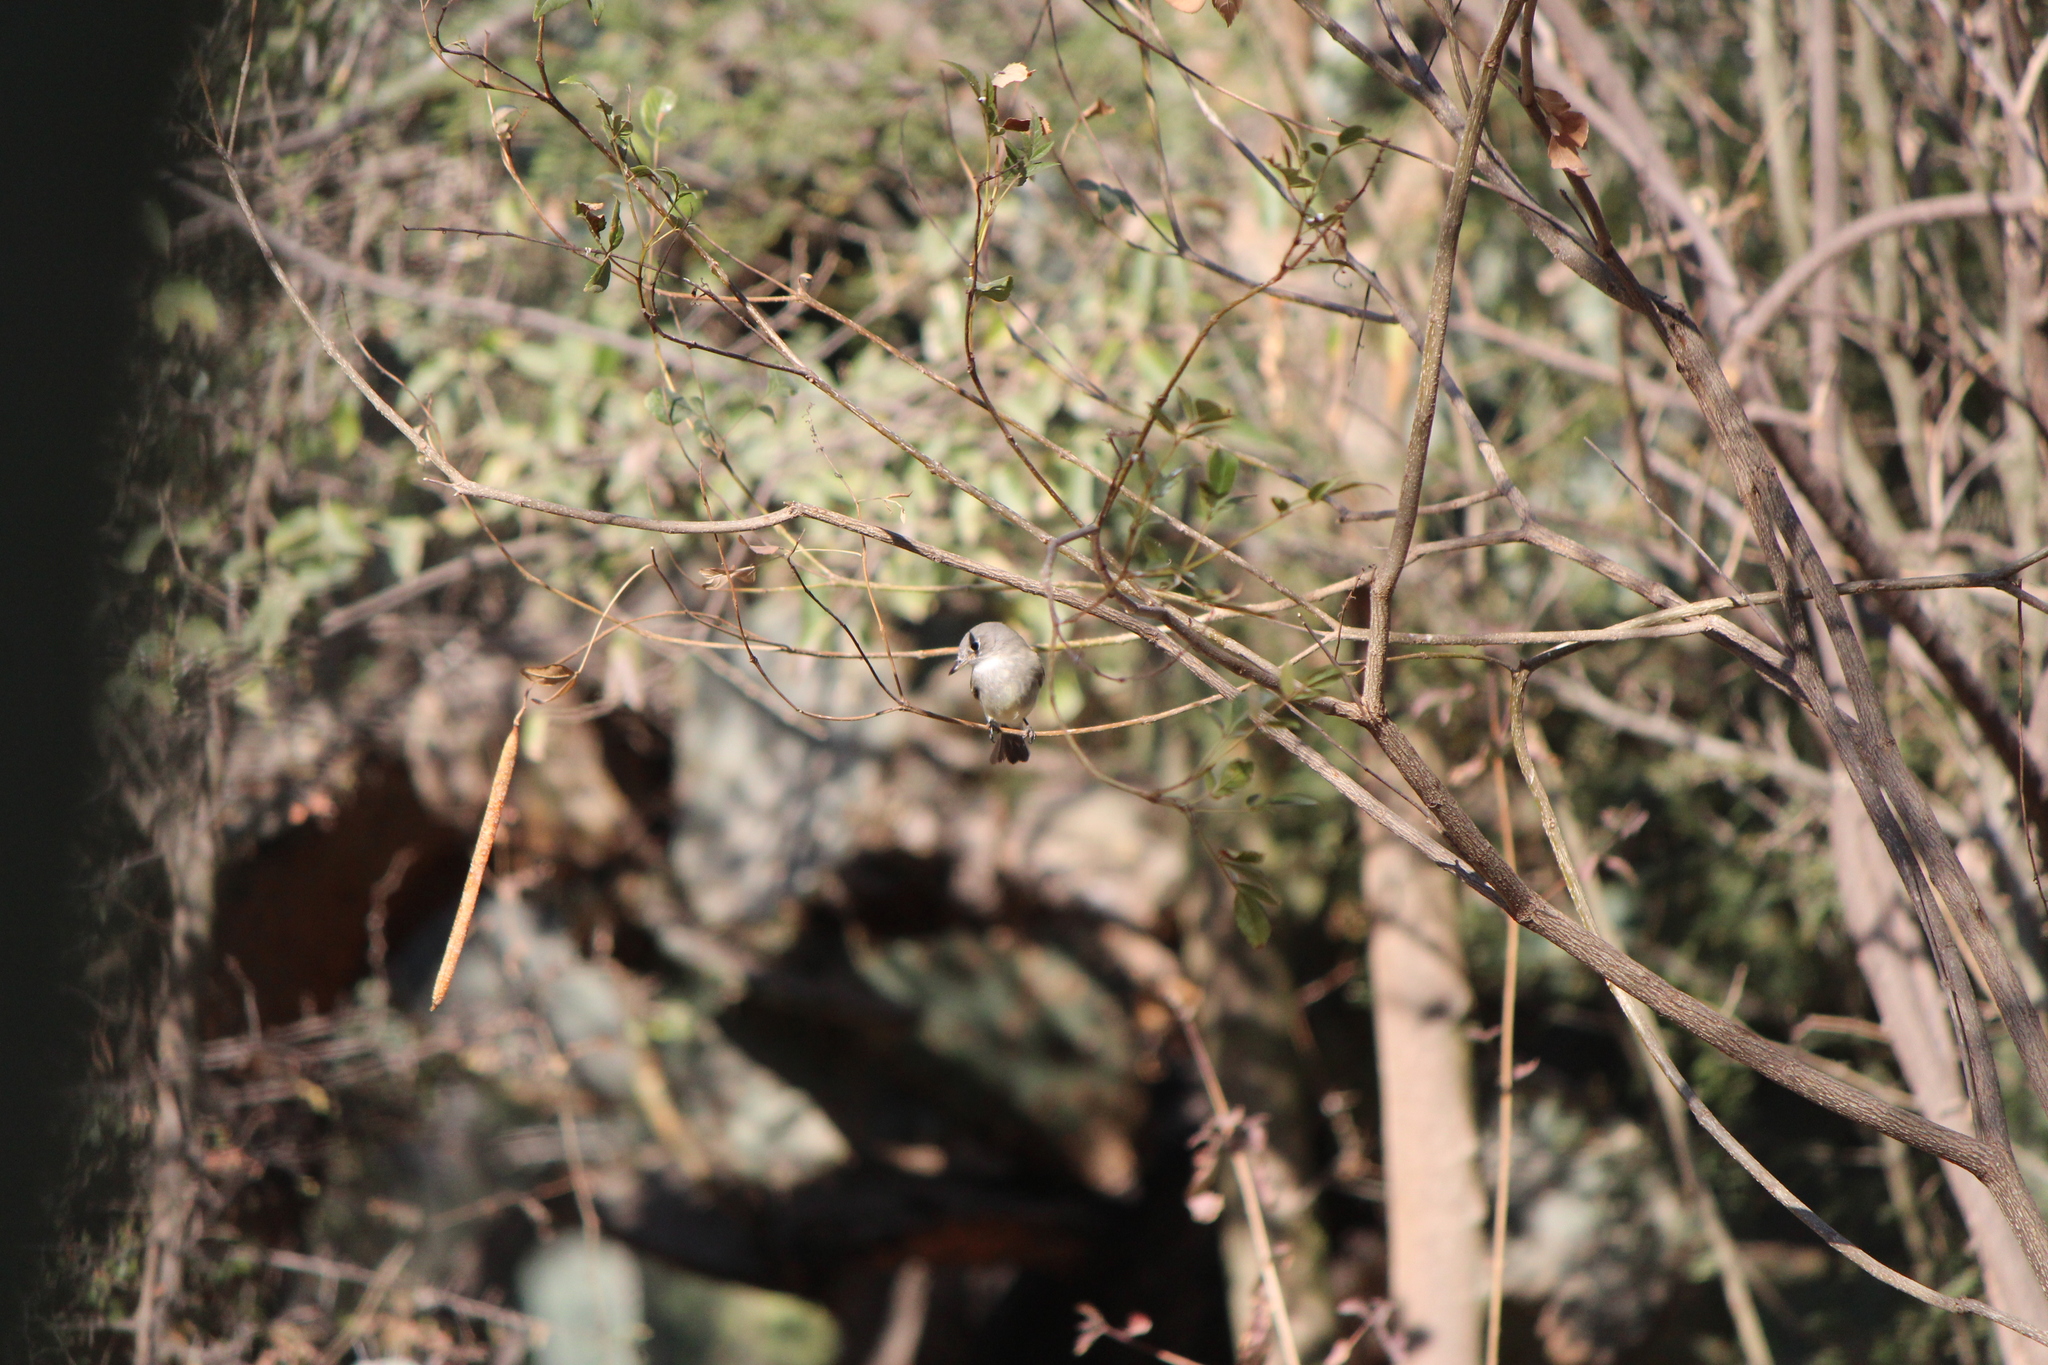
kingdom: Animalia
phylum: Chordata
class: Aves
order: Passeriformes
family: Tyrannidae
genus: Empidonax
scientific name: Empidonax wrightii
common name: Gray flycatcher
